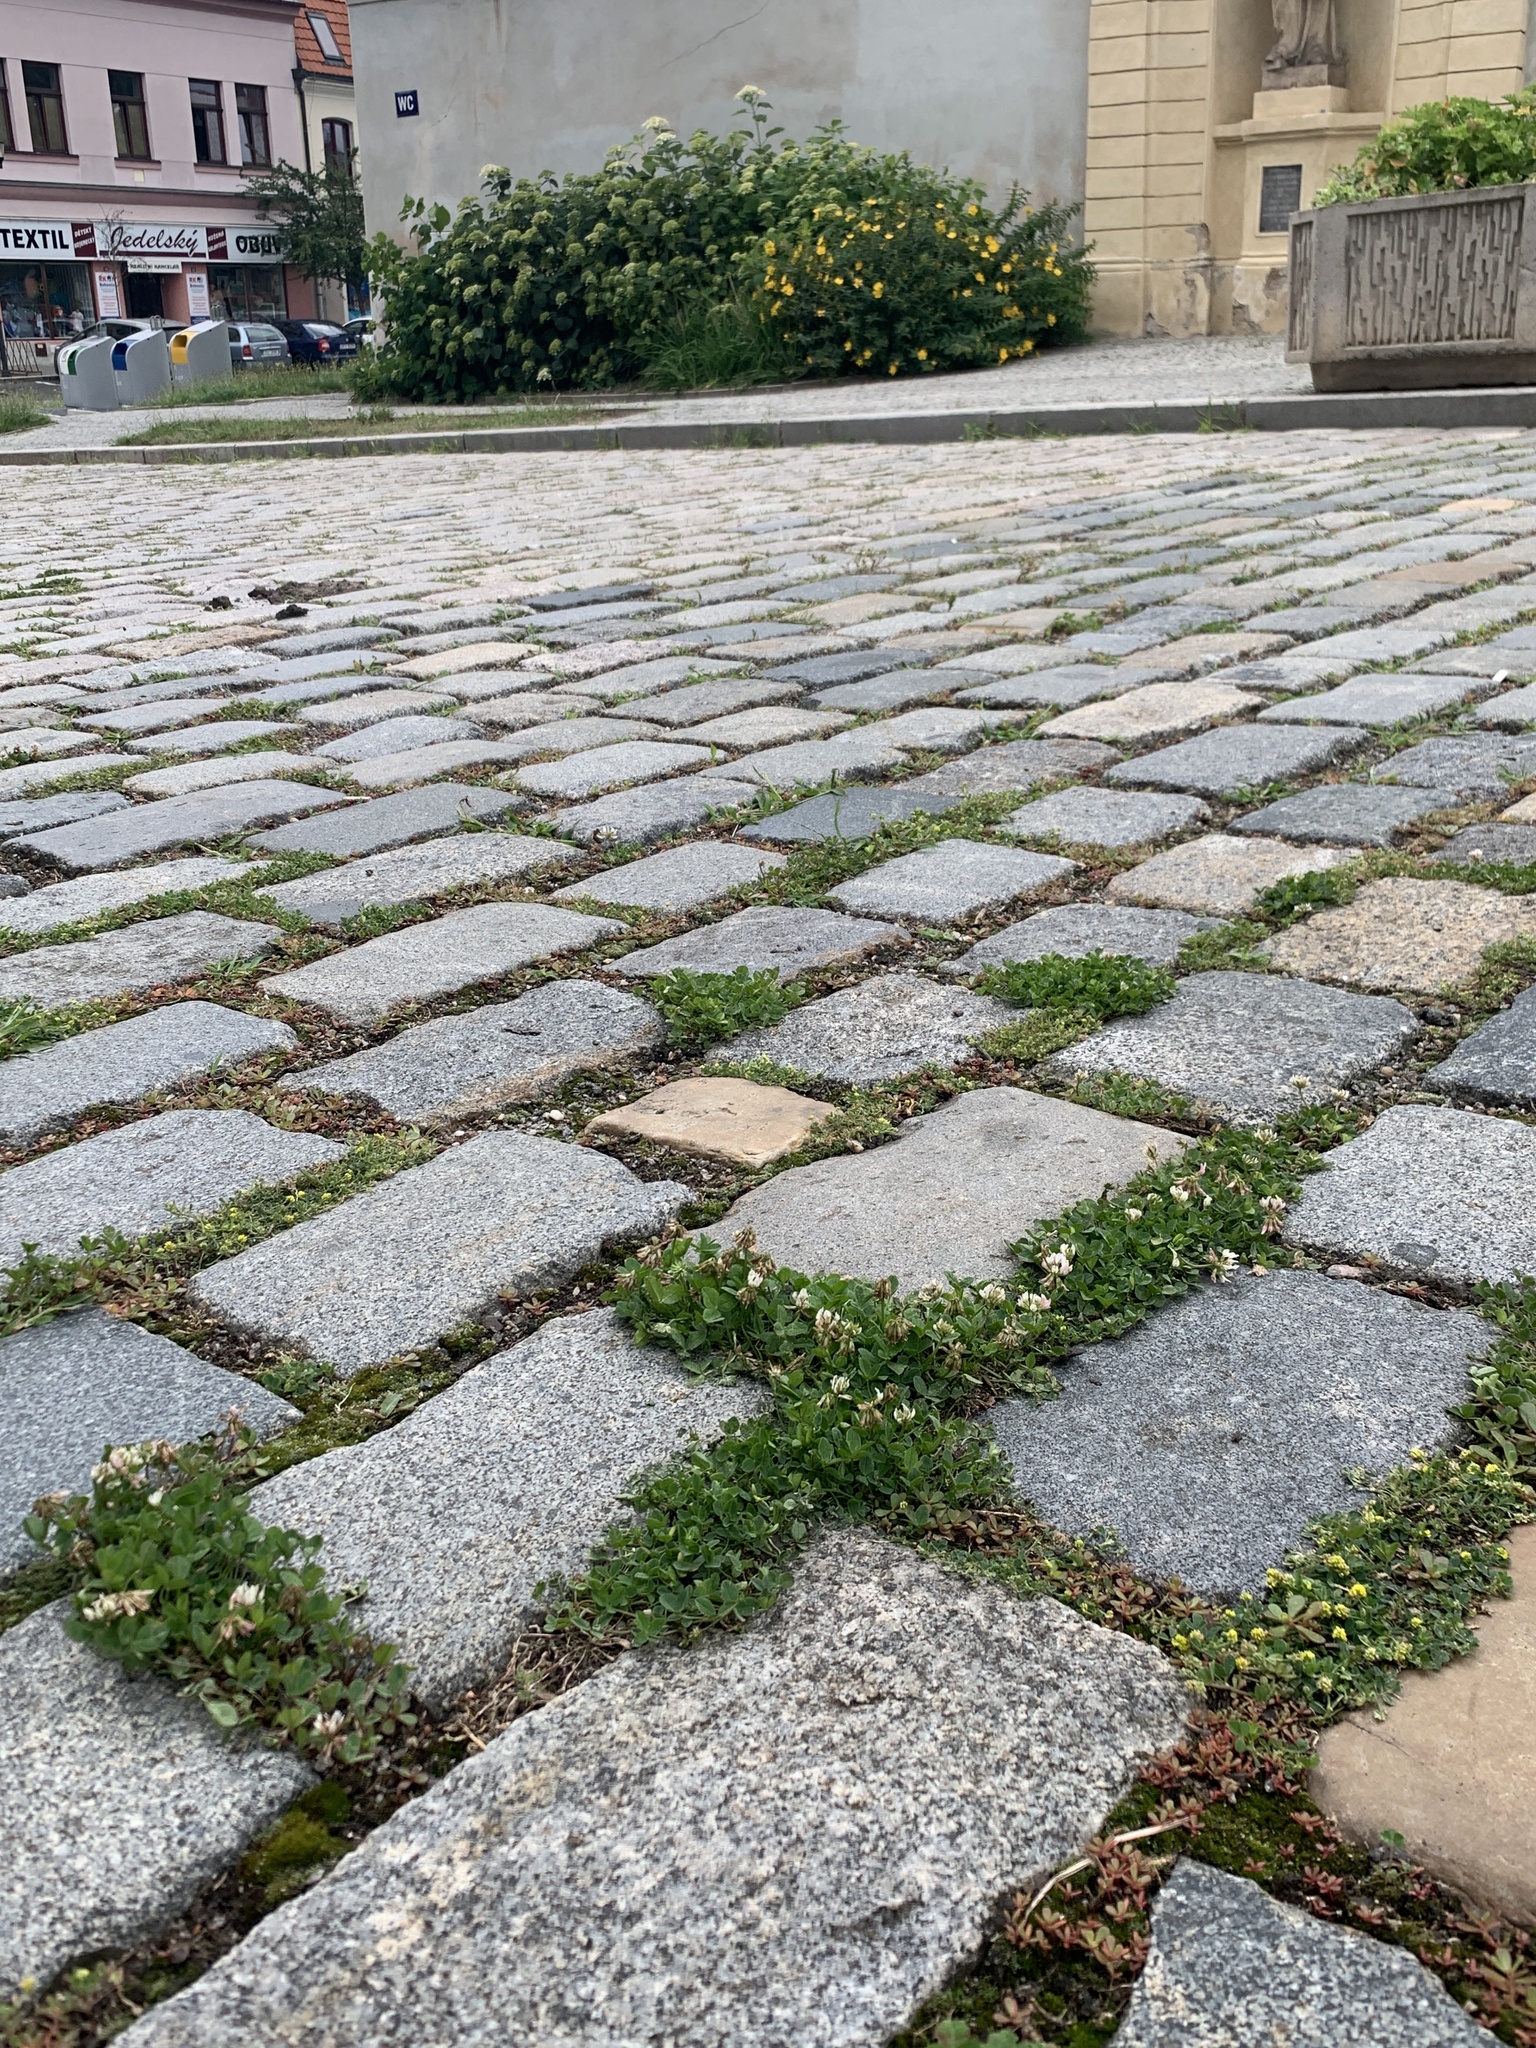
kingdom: Plantae
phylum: Tracheophyta
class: Magnoliopsida
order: Fabales
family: Fabaceae
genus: Trifolium
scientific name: Trifolium repens
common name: White clover
